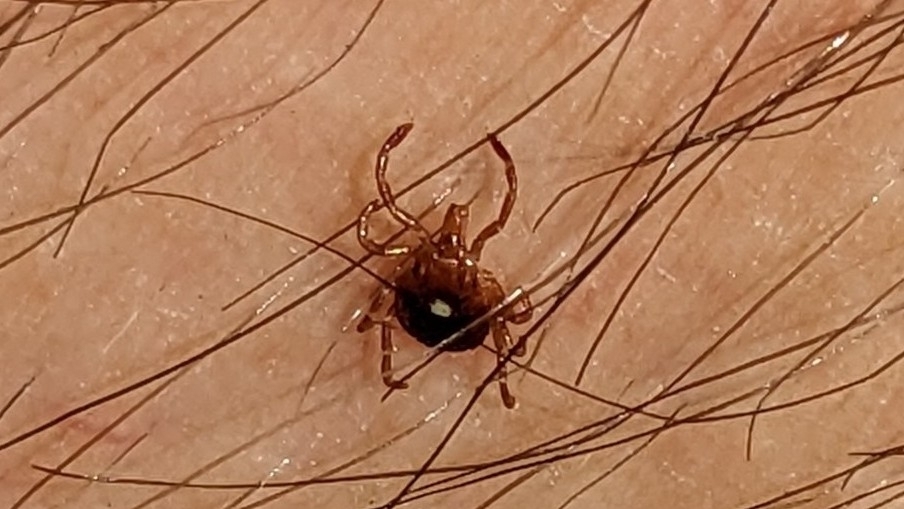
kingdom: Animalia
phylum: Arthropoda
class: Arachnida
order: Ixodida
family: Ixodidae
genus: Amblyomma
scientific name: Amblyomma americanum
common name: Lone star tick
